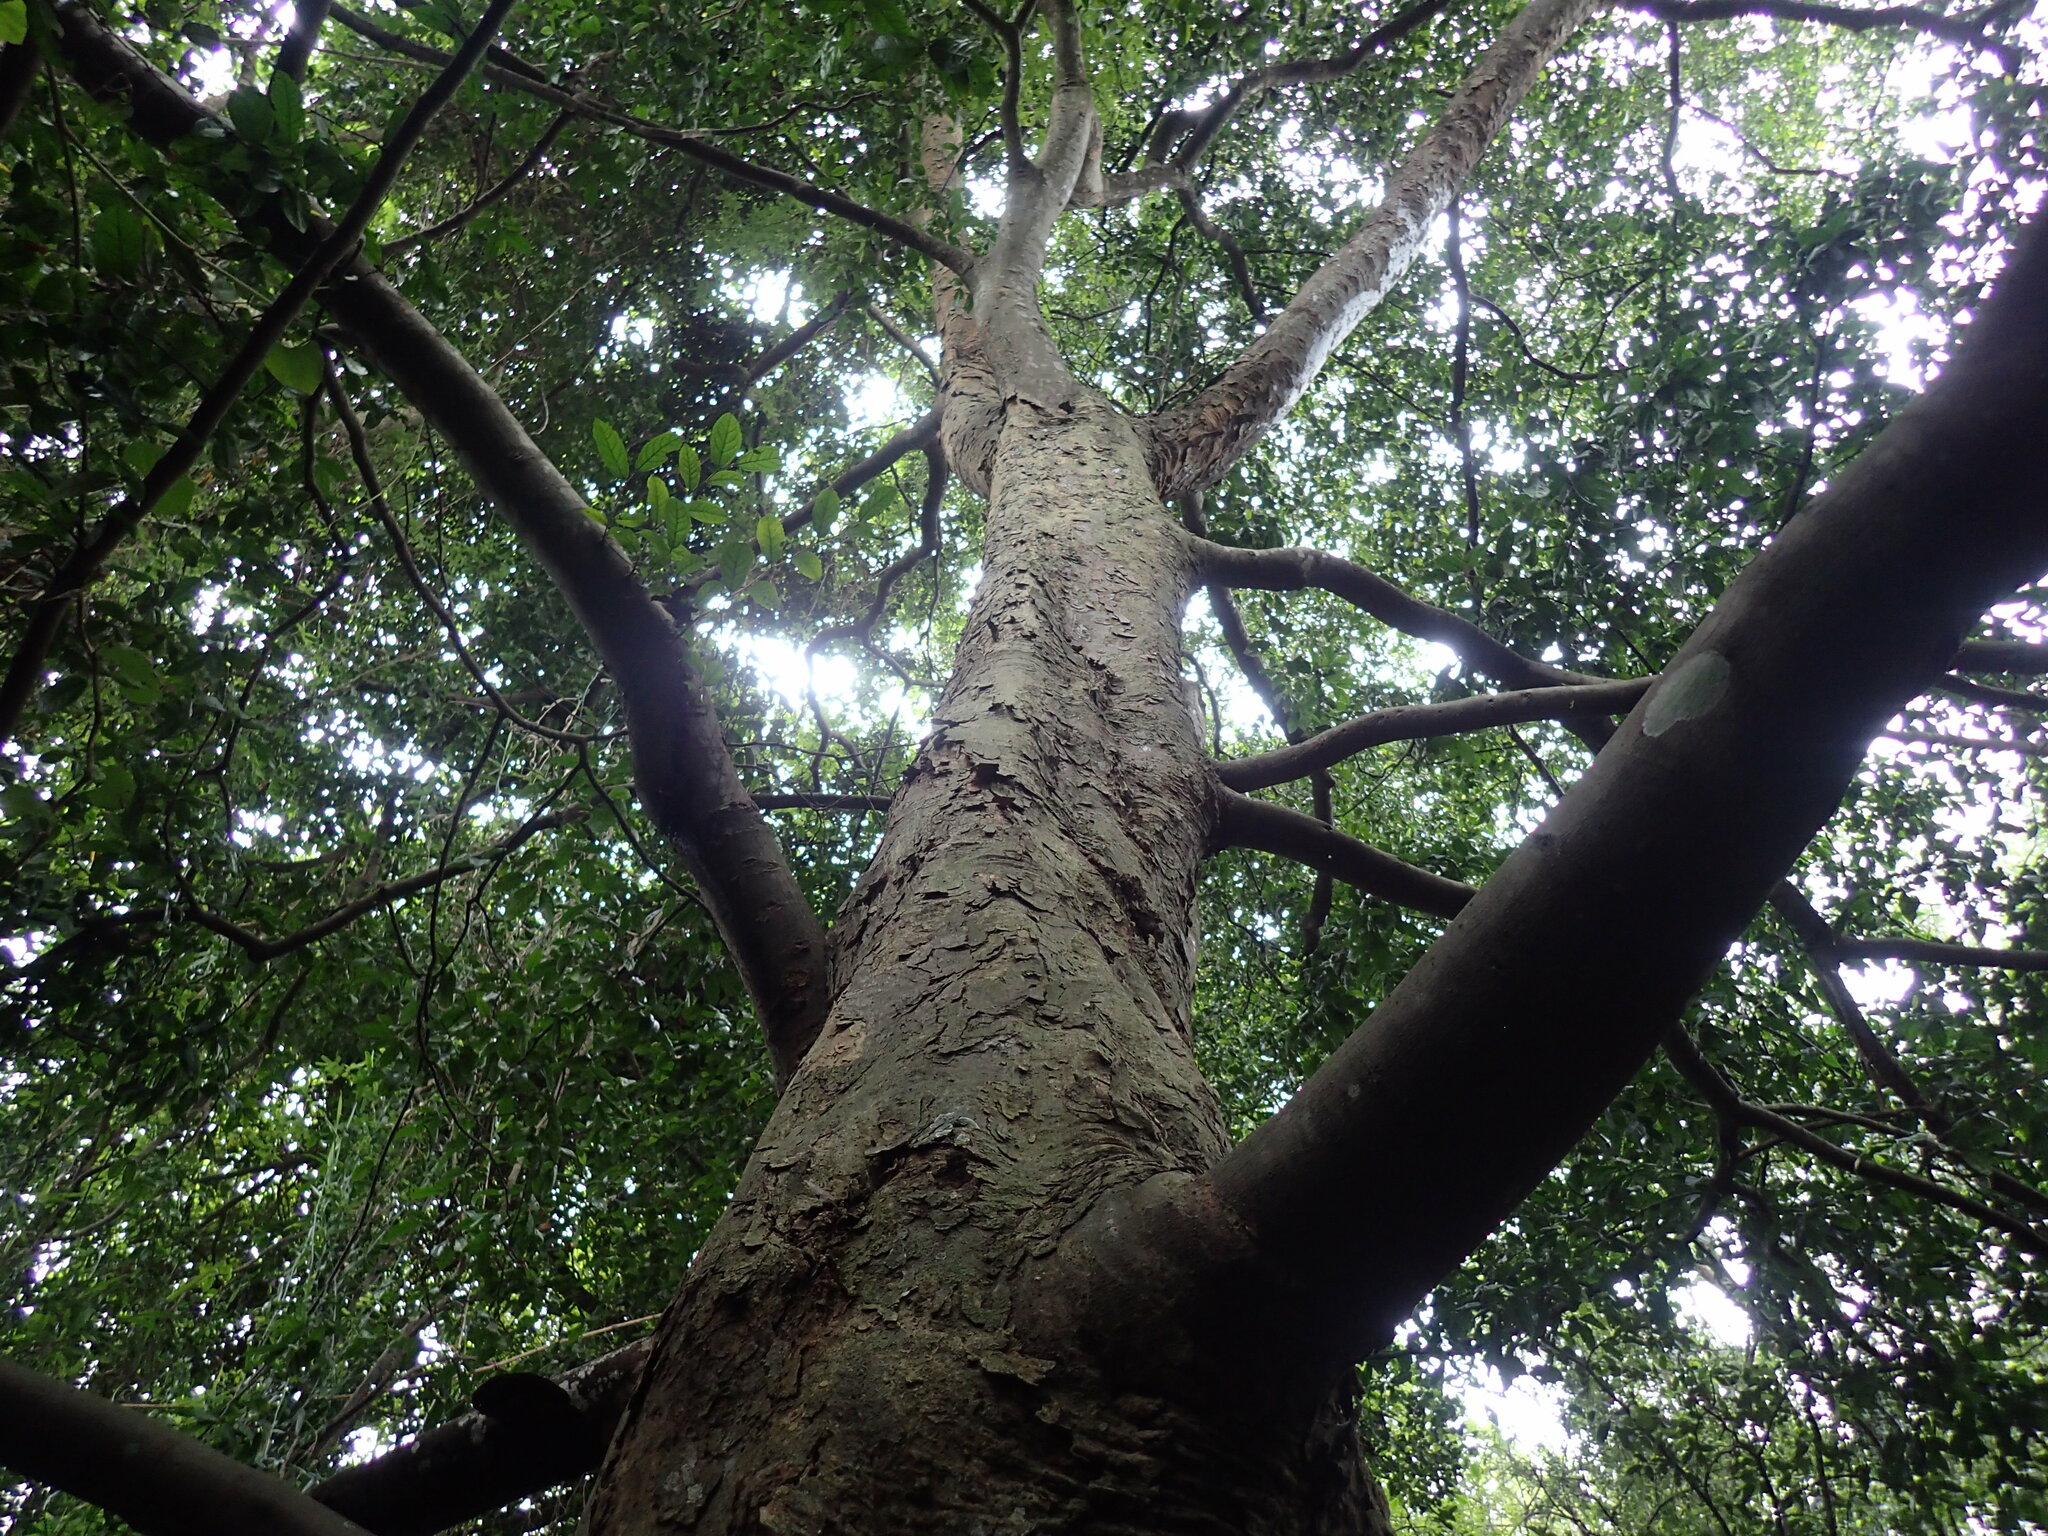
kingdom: Plantae
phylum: Tracheophyta
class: Magnoliopsida
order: Rosales
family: Cannabaceae
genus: Celtis
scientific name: Celtis mildbraedii
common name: Red-fruited stinkwood
